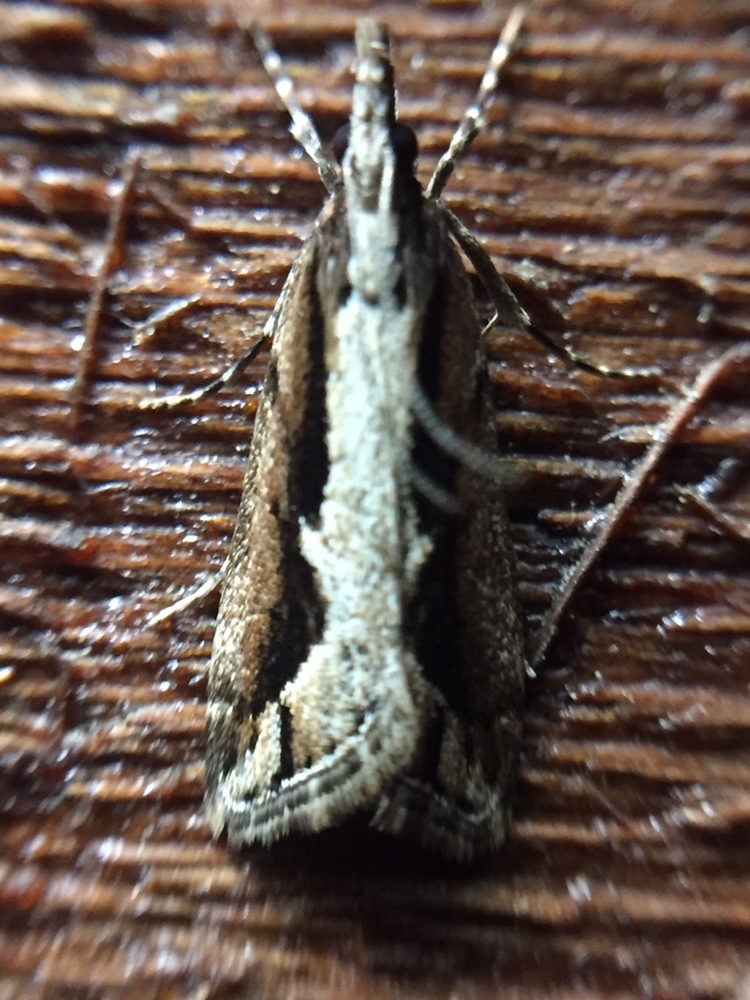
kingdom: Animalia
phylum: Arthropoda
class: Insecta
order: Lepidoptera
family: Crambidae
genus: Eudonia
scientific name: Eudonia steropaea
